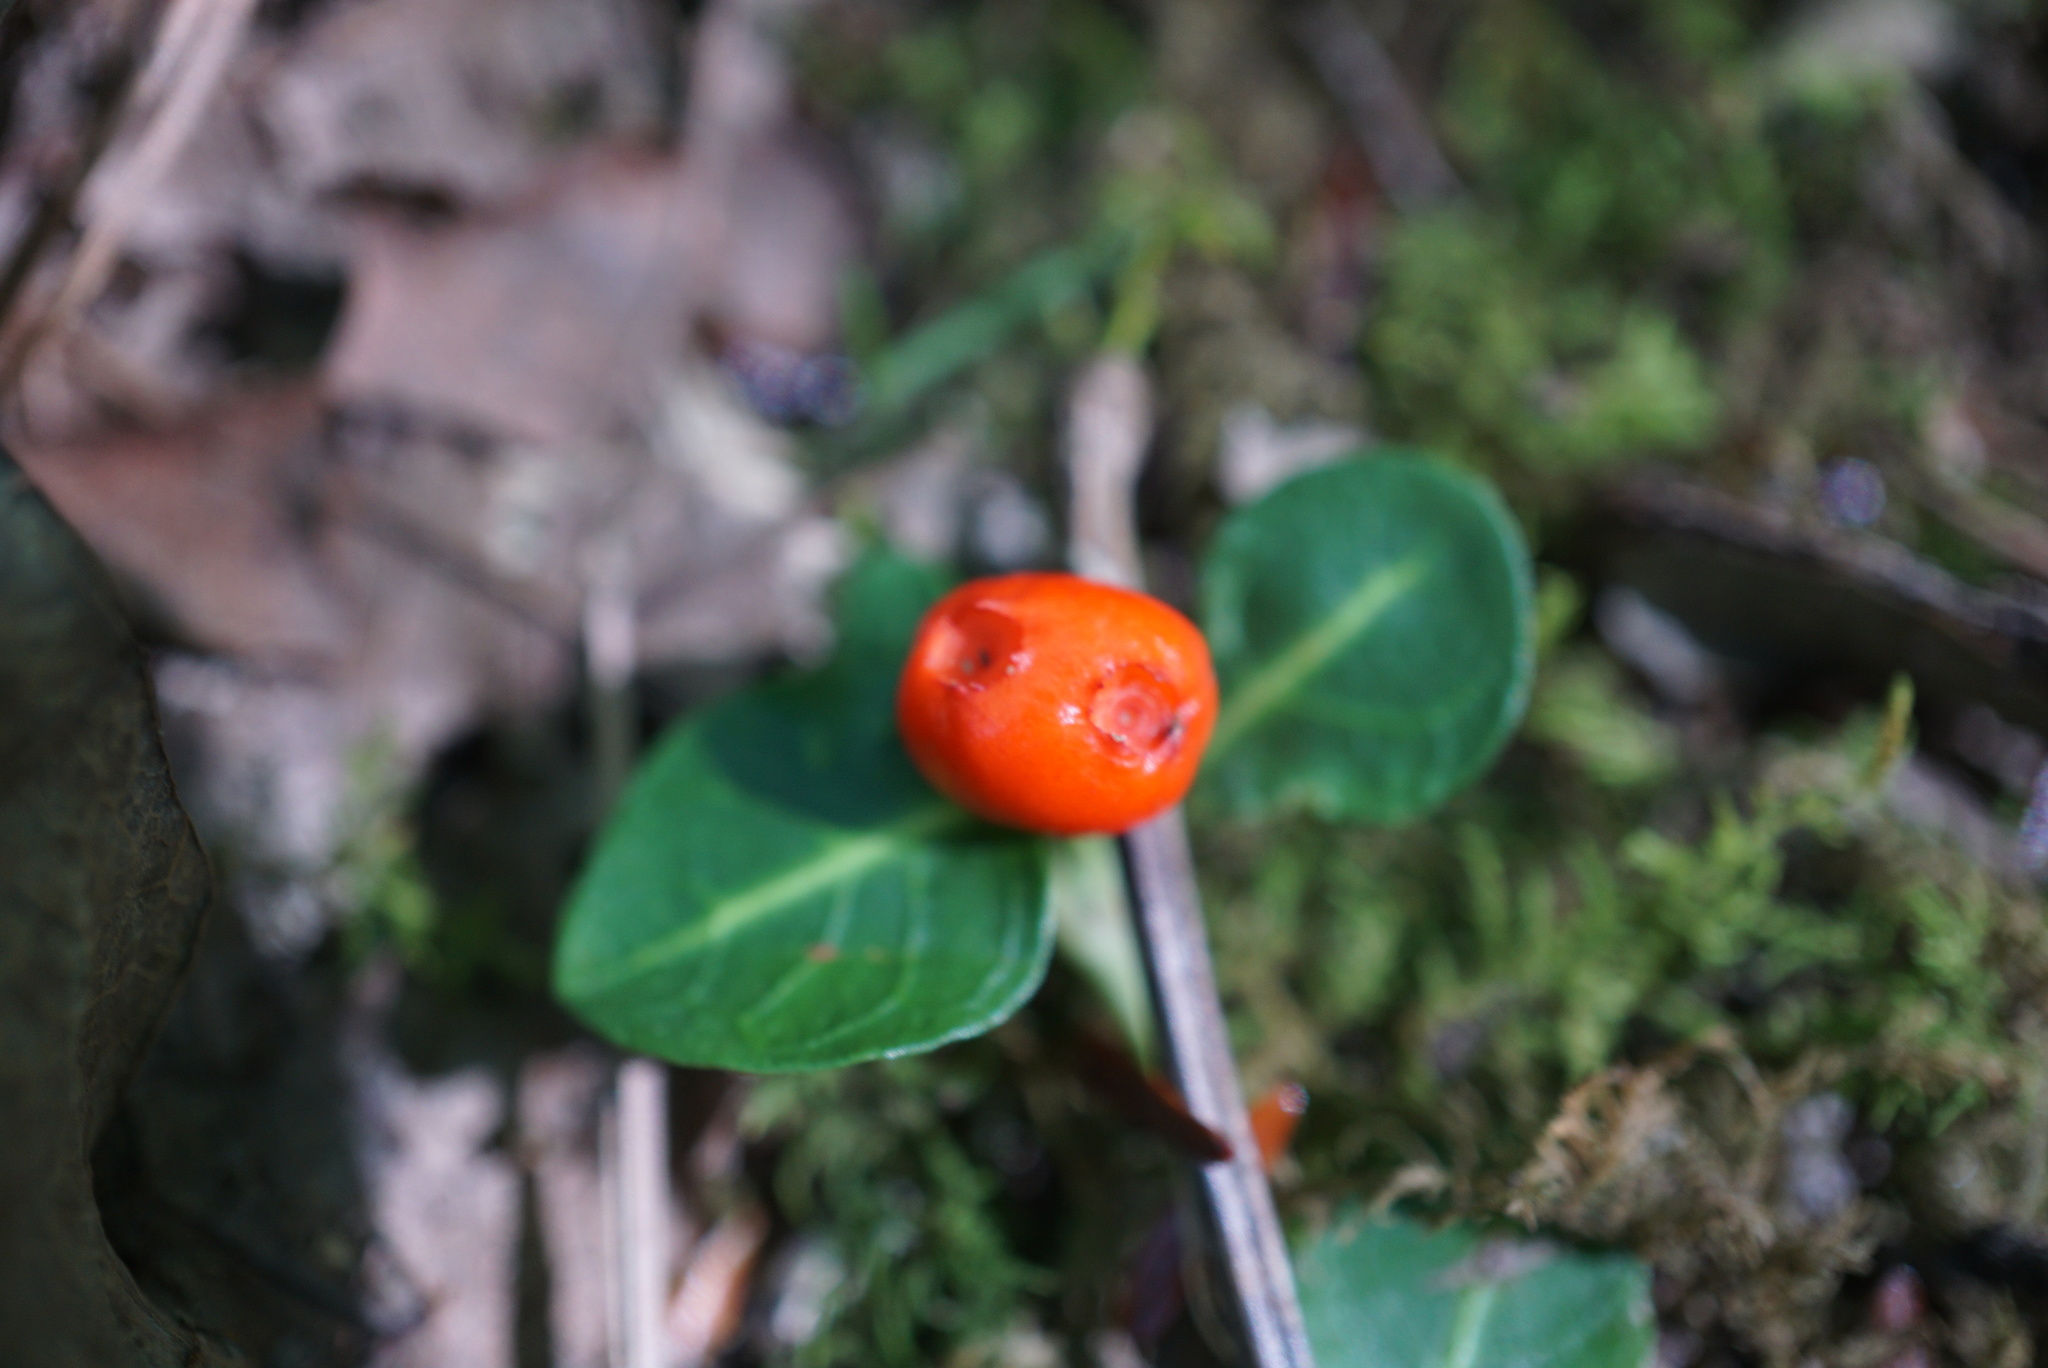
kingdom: Plantae
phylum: Tracheophyta
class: Magnoliopsida
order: Gentianales
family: Rubiaceae
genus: Mitchella
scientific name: Mitchella repens
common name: Partridge-berry
